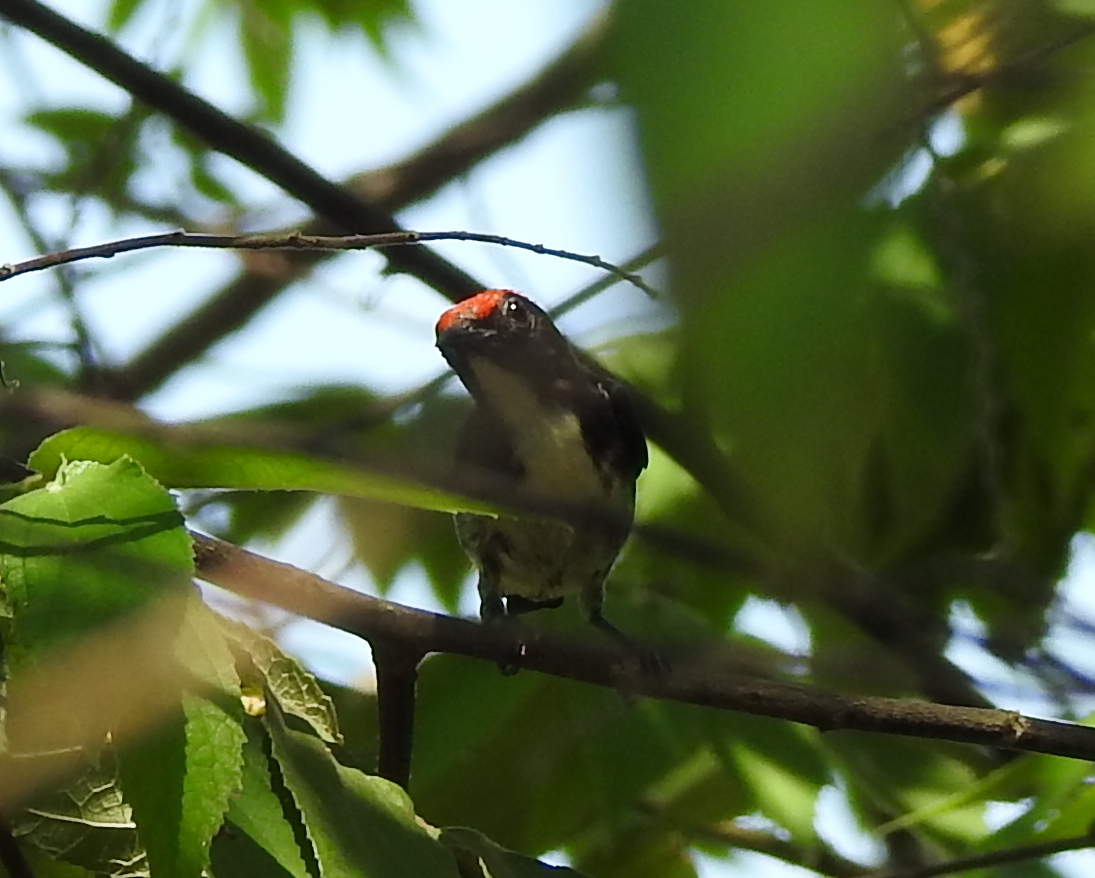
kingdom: Animalia
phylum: Chordata
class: Aves
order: Passeriformes
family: Dicaeidae
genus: Dicaeum
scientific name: Dicaeum cruentatum
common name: Scarlet-backed flowerpecker
